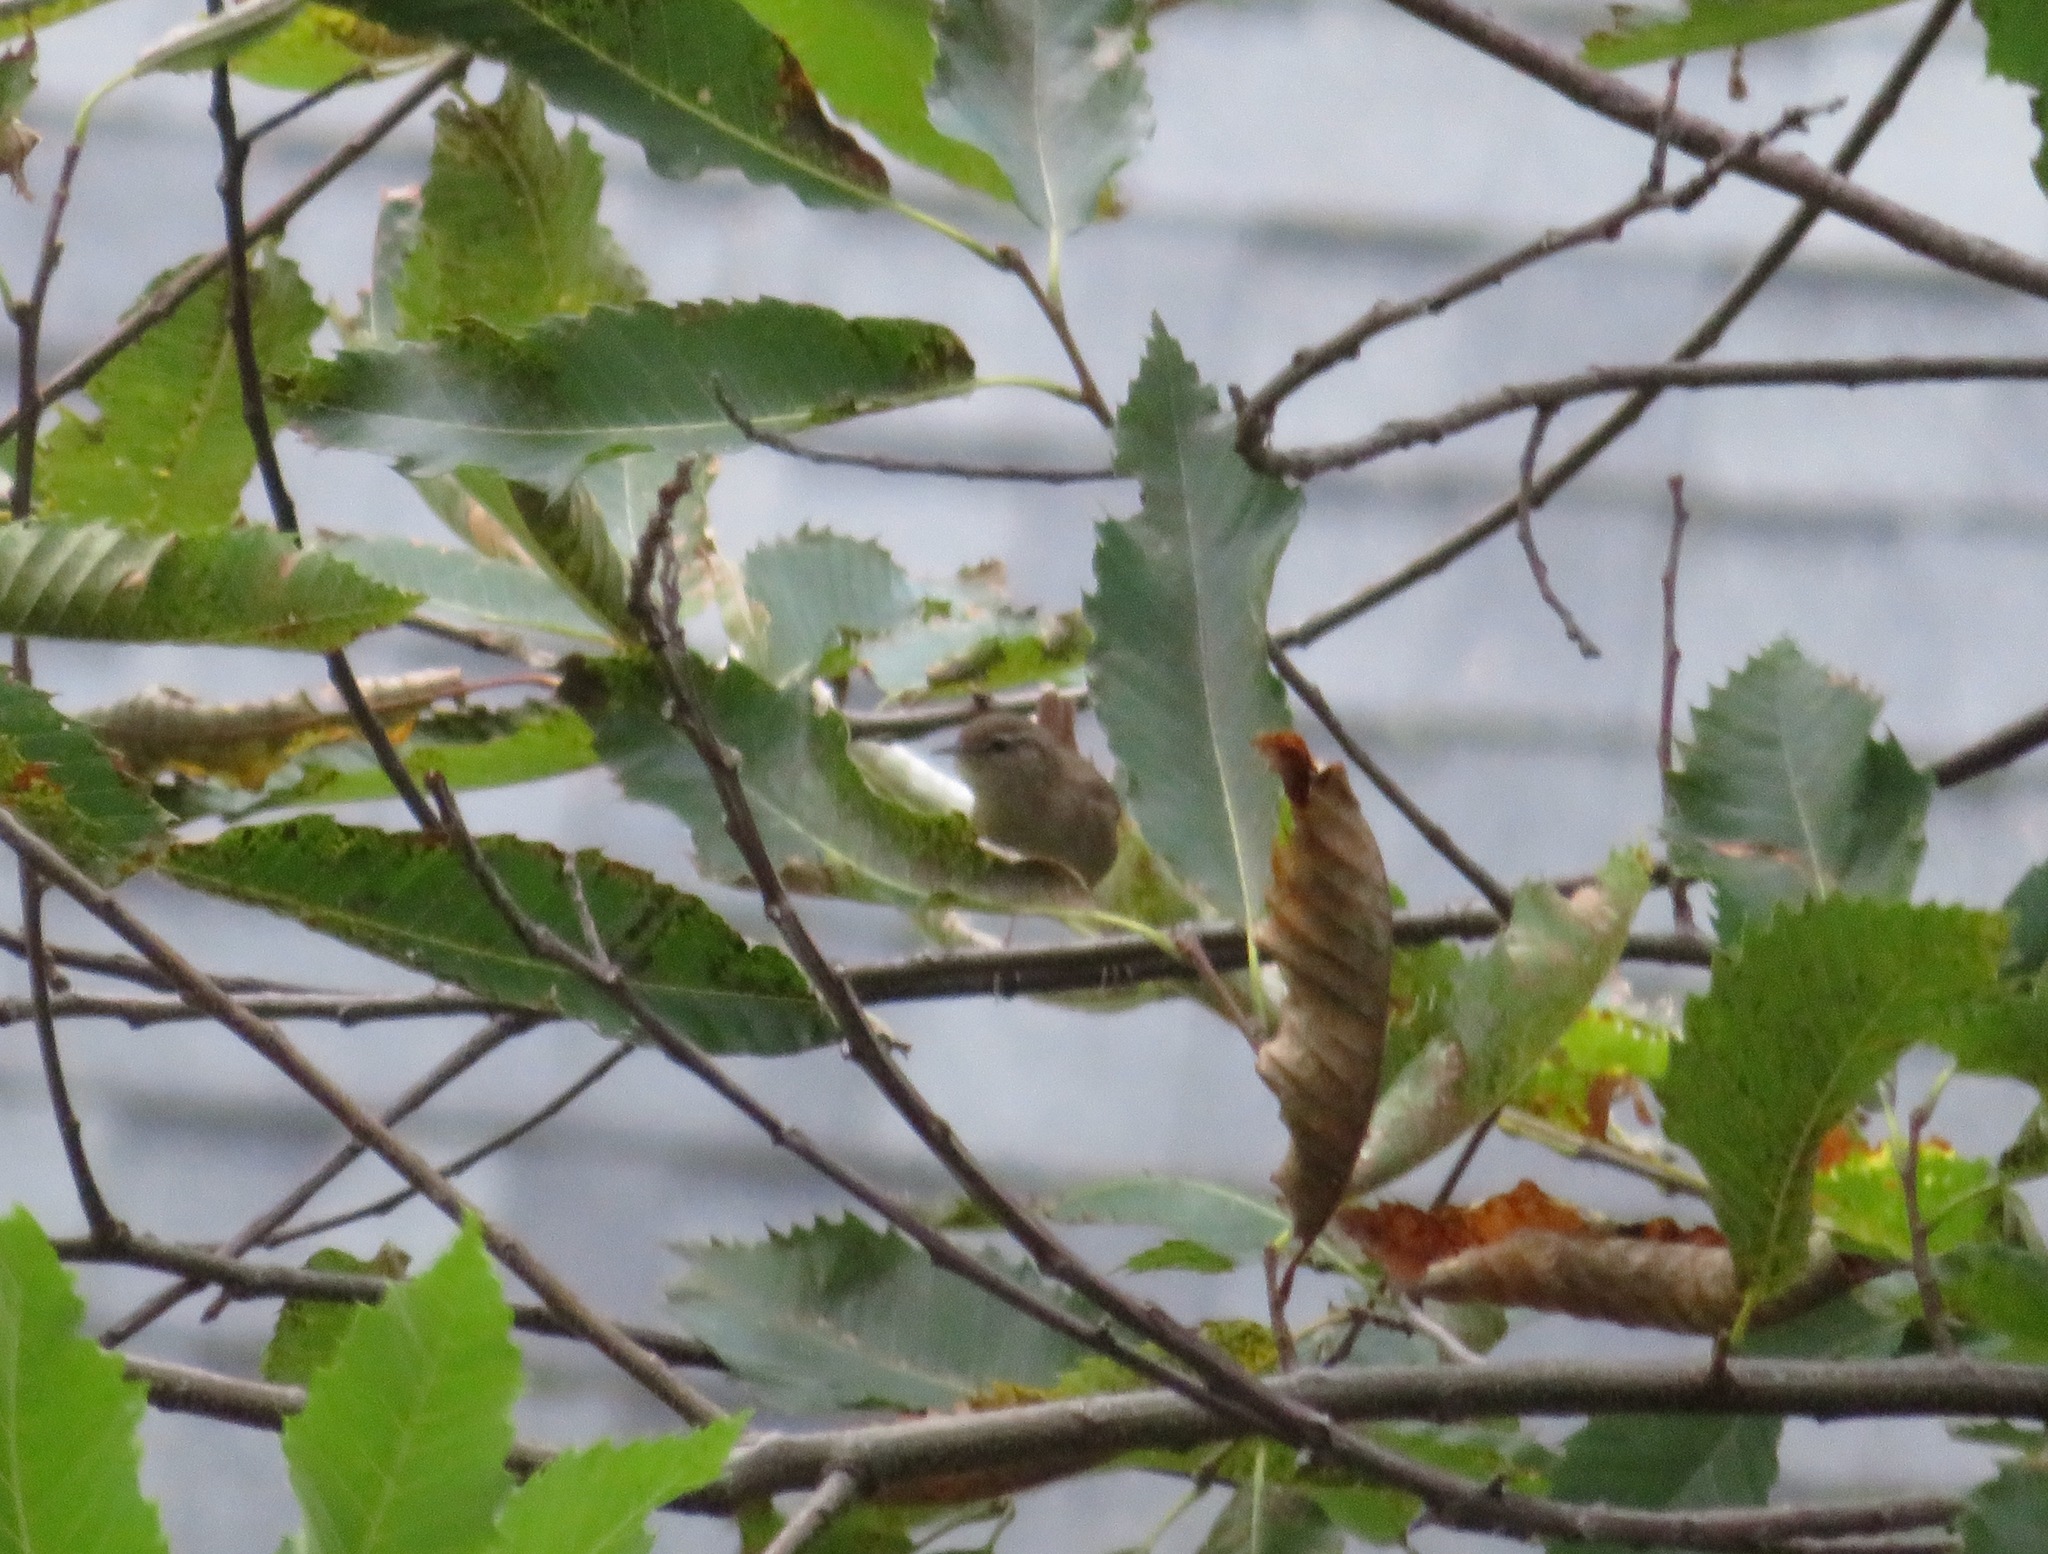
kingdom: Animalia
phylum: Chordata
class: Aves
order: Passeriformes
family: Troglodytidae
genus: Troglodytes
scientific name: Troglodytes troglodytes
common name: Eurasian wren
